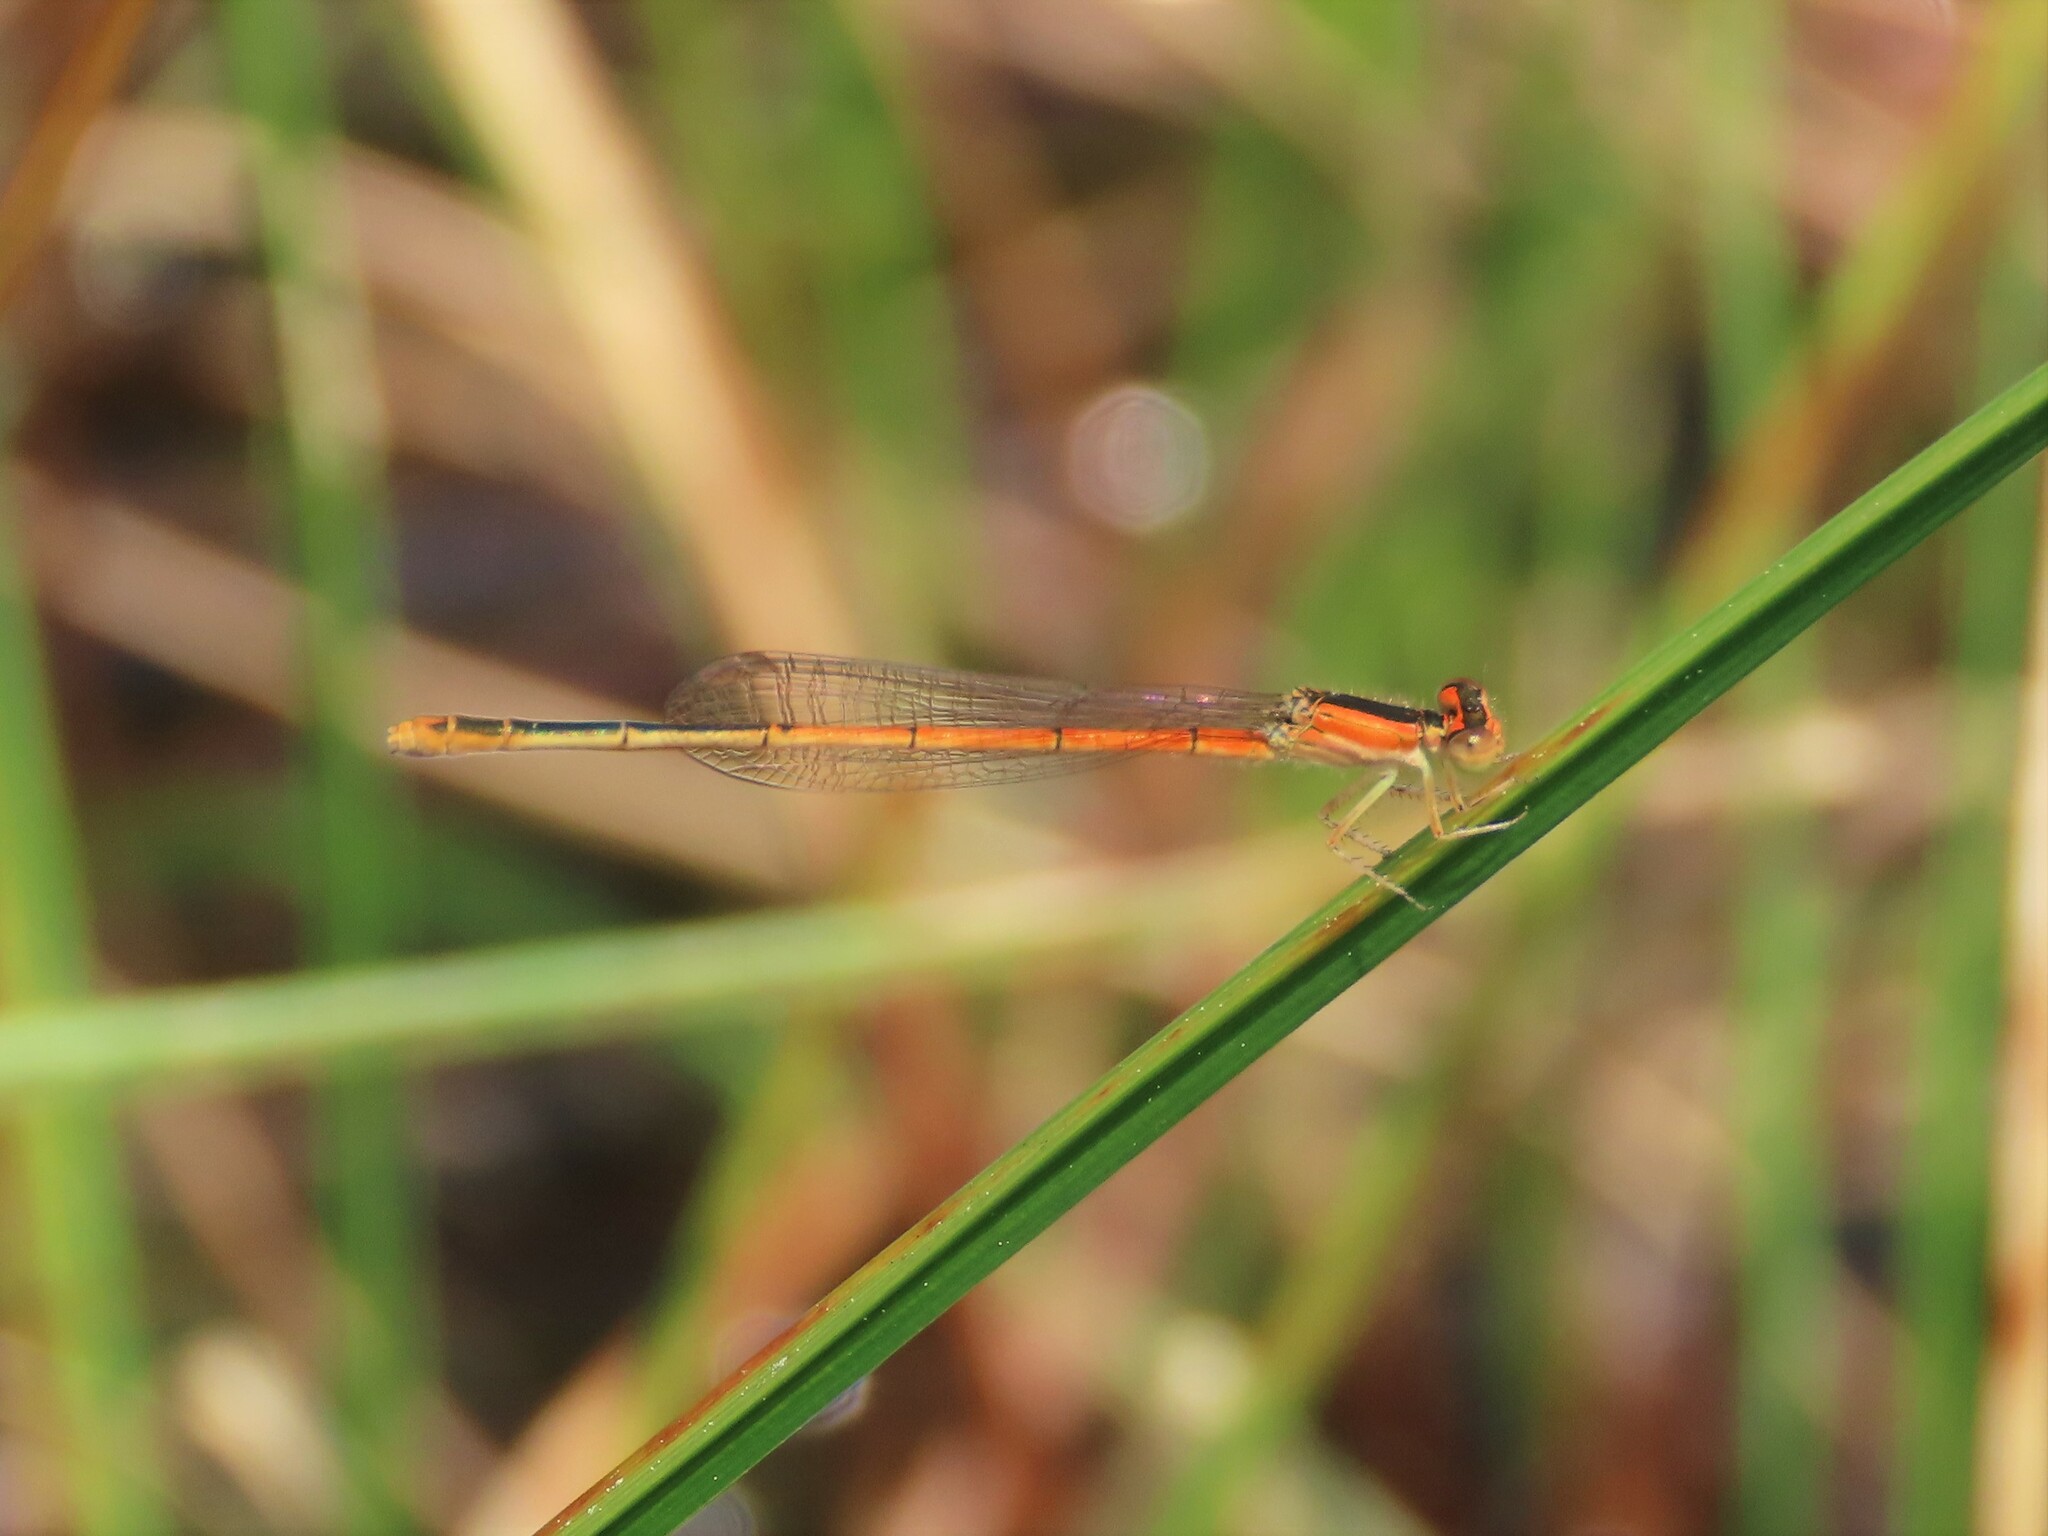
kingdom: Animalia
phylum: Arthropoda
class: Insecta
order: Odonata
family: Coenagrionidae
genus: Ischnura
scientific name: Ischnura hastata
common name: Citrine forktail
